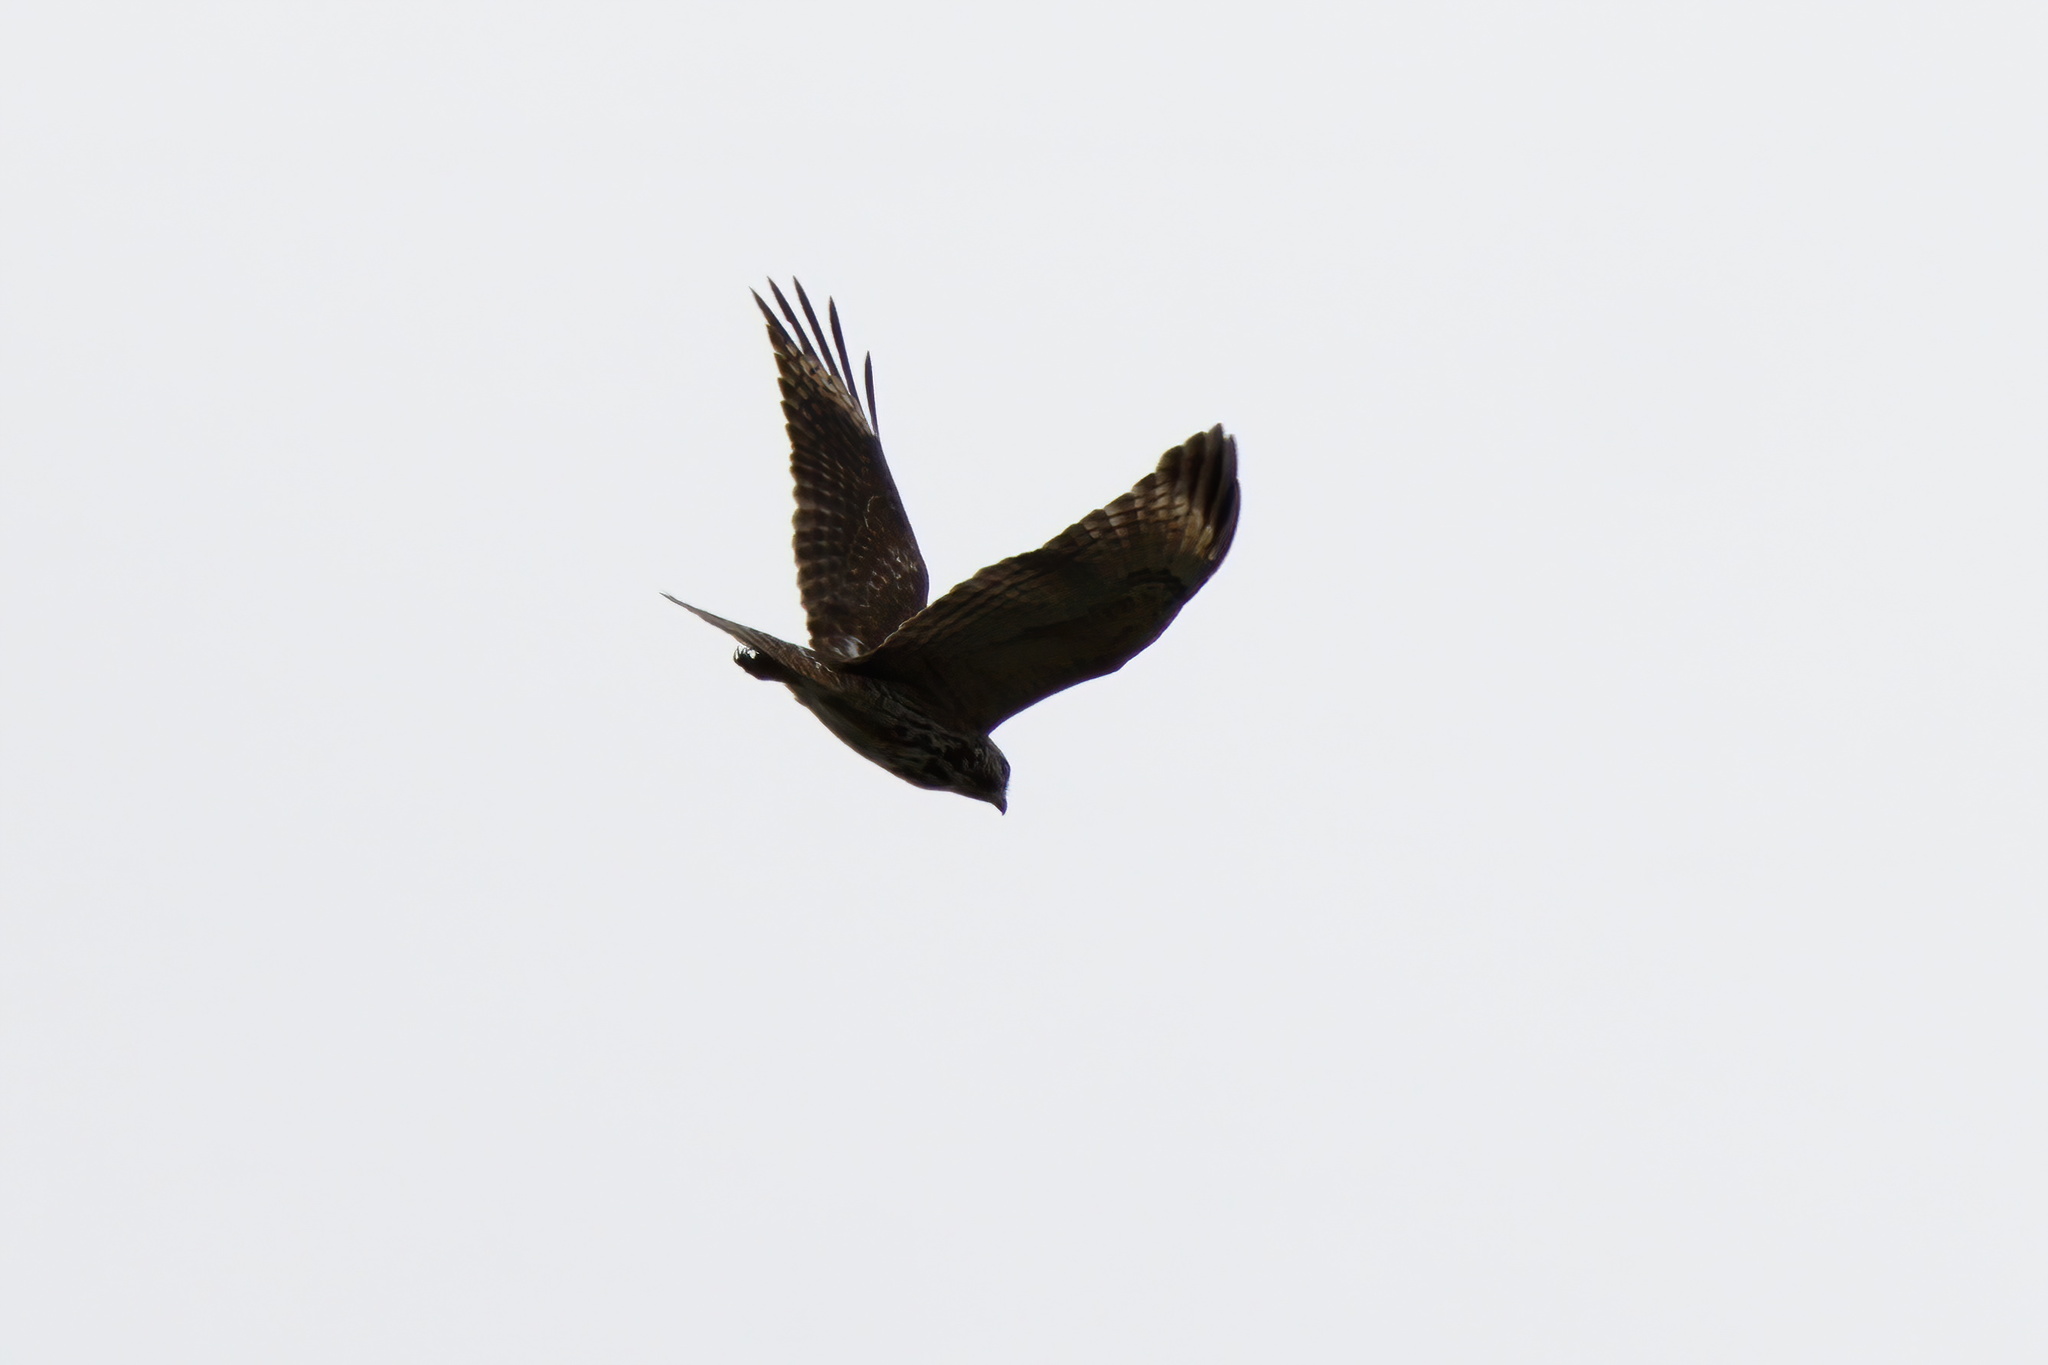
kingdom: Animalia
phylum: Chordata
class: Aves
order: Accipitriformes
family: Accipitridae
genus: Buteo
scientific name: Buteo lineatus
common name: Red-shouldered hawk
